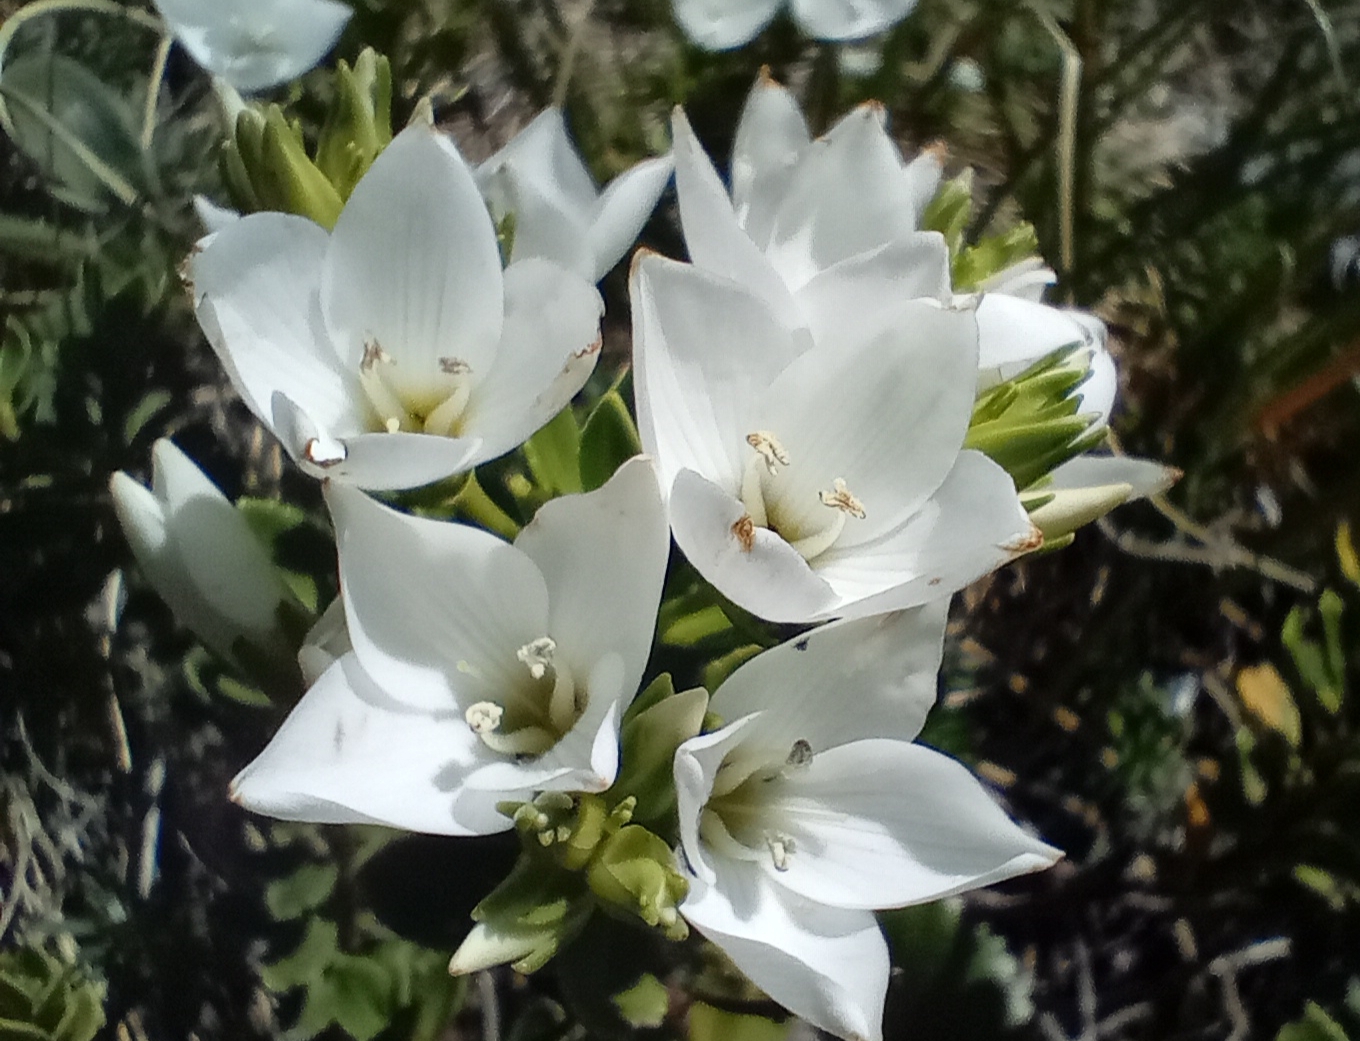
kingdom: Plantae
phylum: Tracheophyta
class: Magnoliopsida
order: Lamiales
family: Plantaginaceae
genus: Veronica
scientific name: Veronica macrantha
